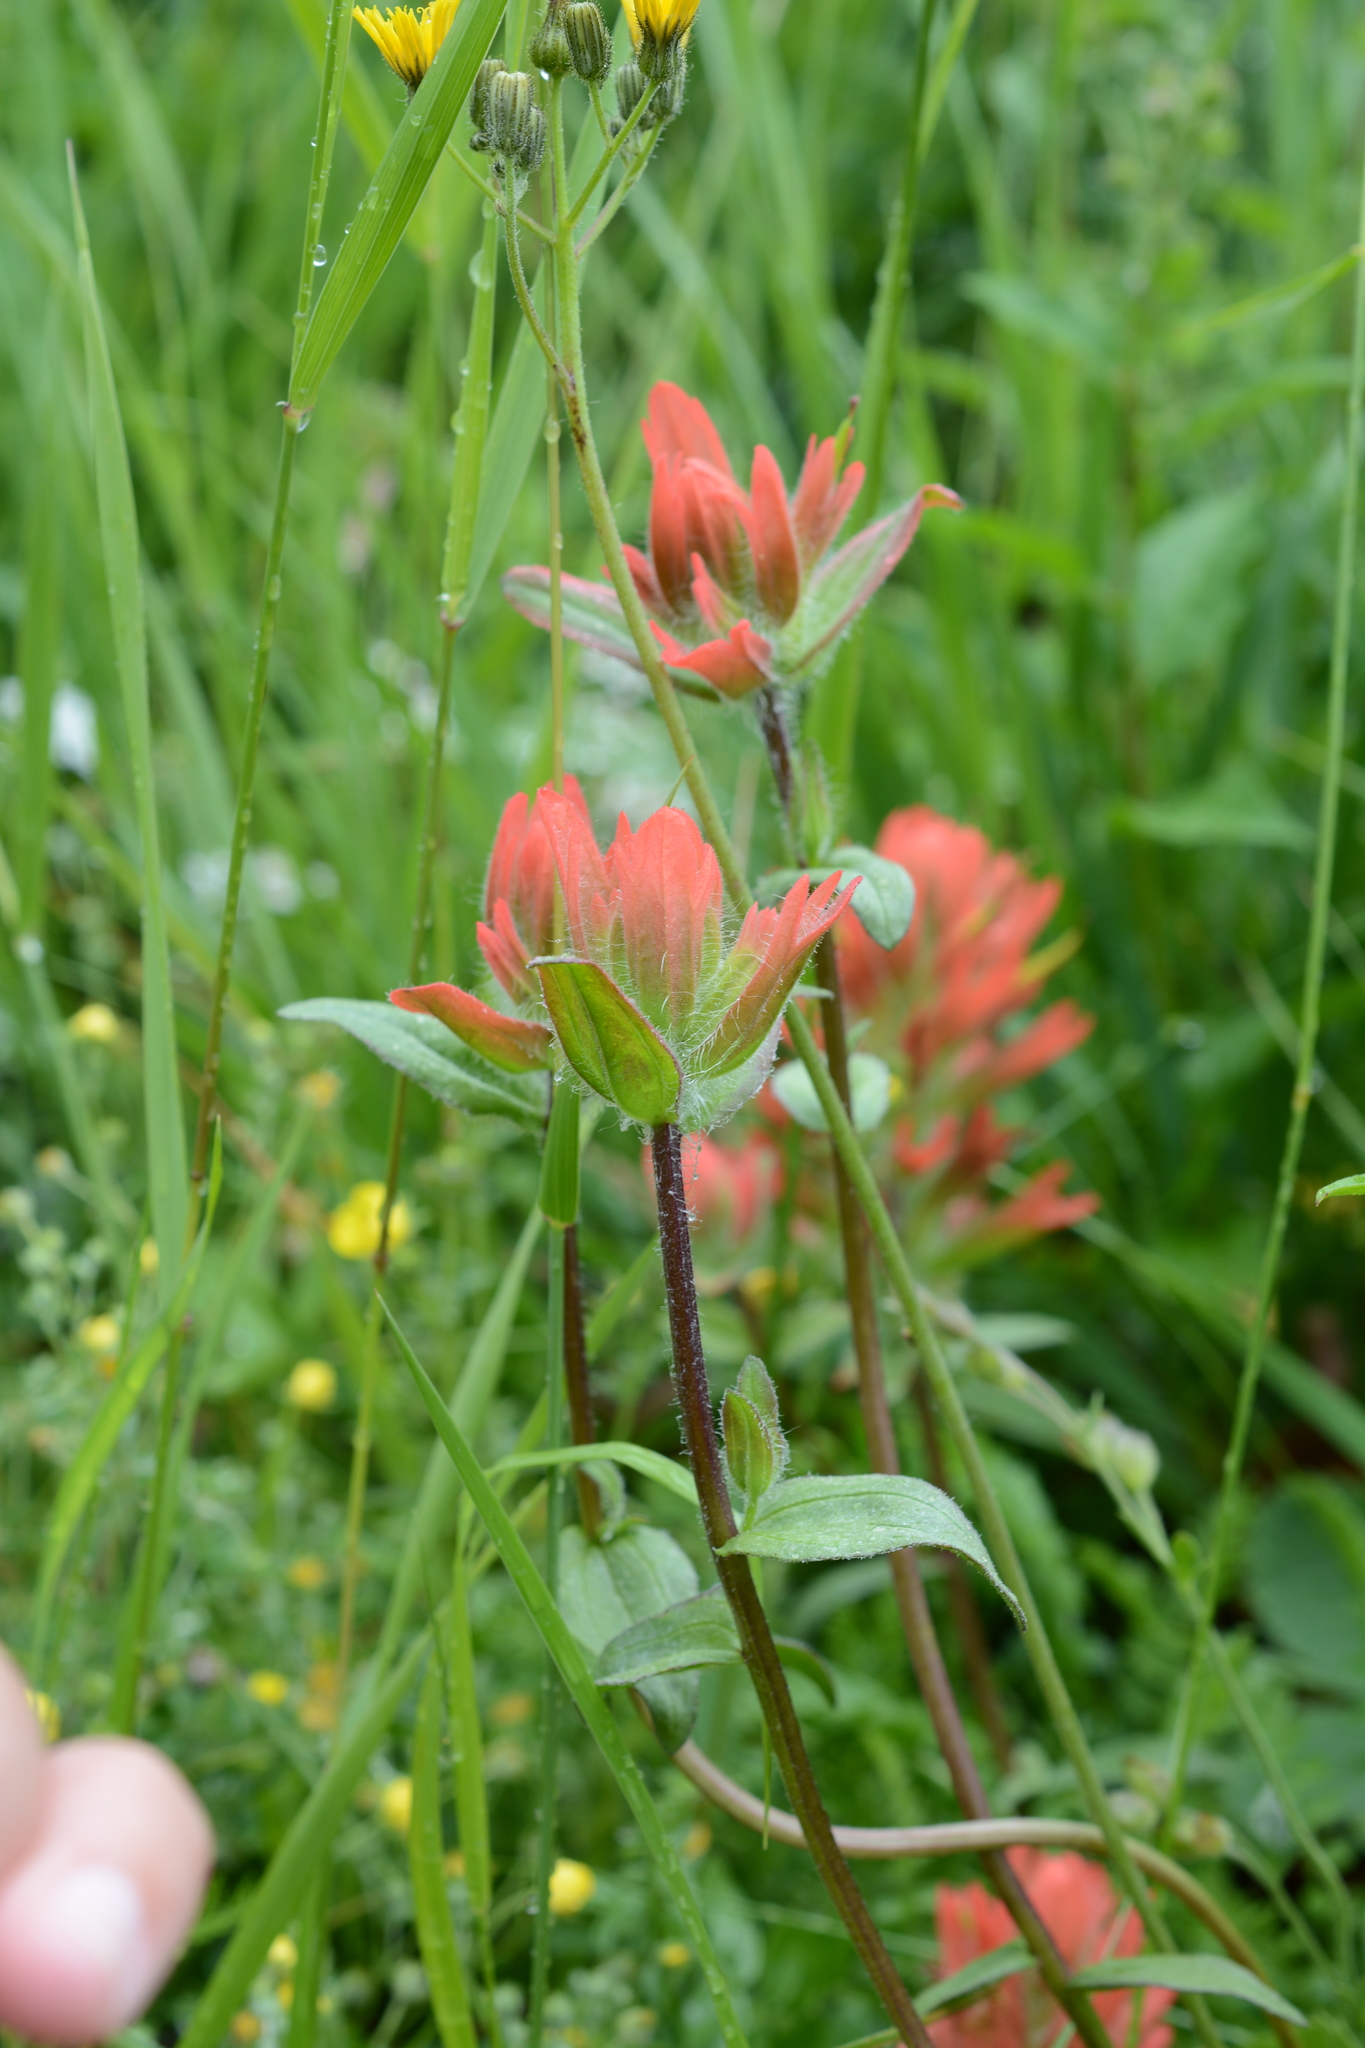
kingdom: Plantae
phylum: Tracheophyta
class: Magnoliopsida
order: Lamiales
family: Orobanchaceae
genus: Castilleja
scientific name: Castilleja miniata
